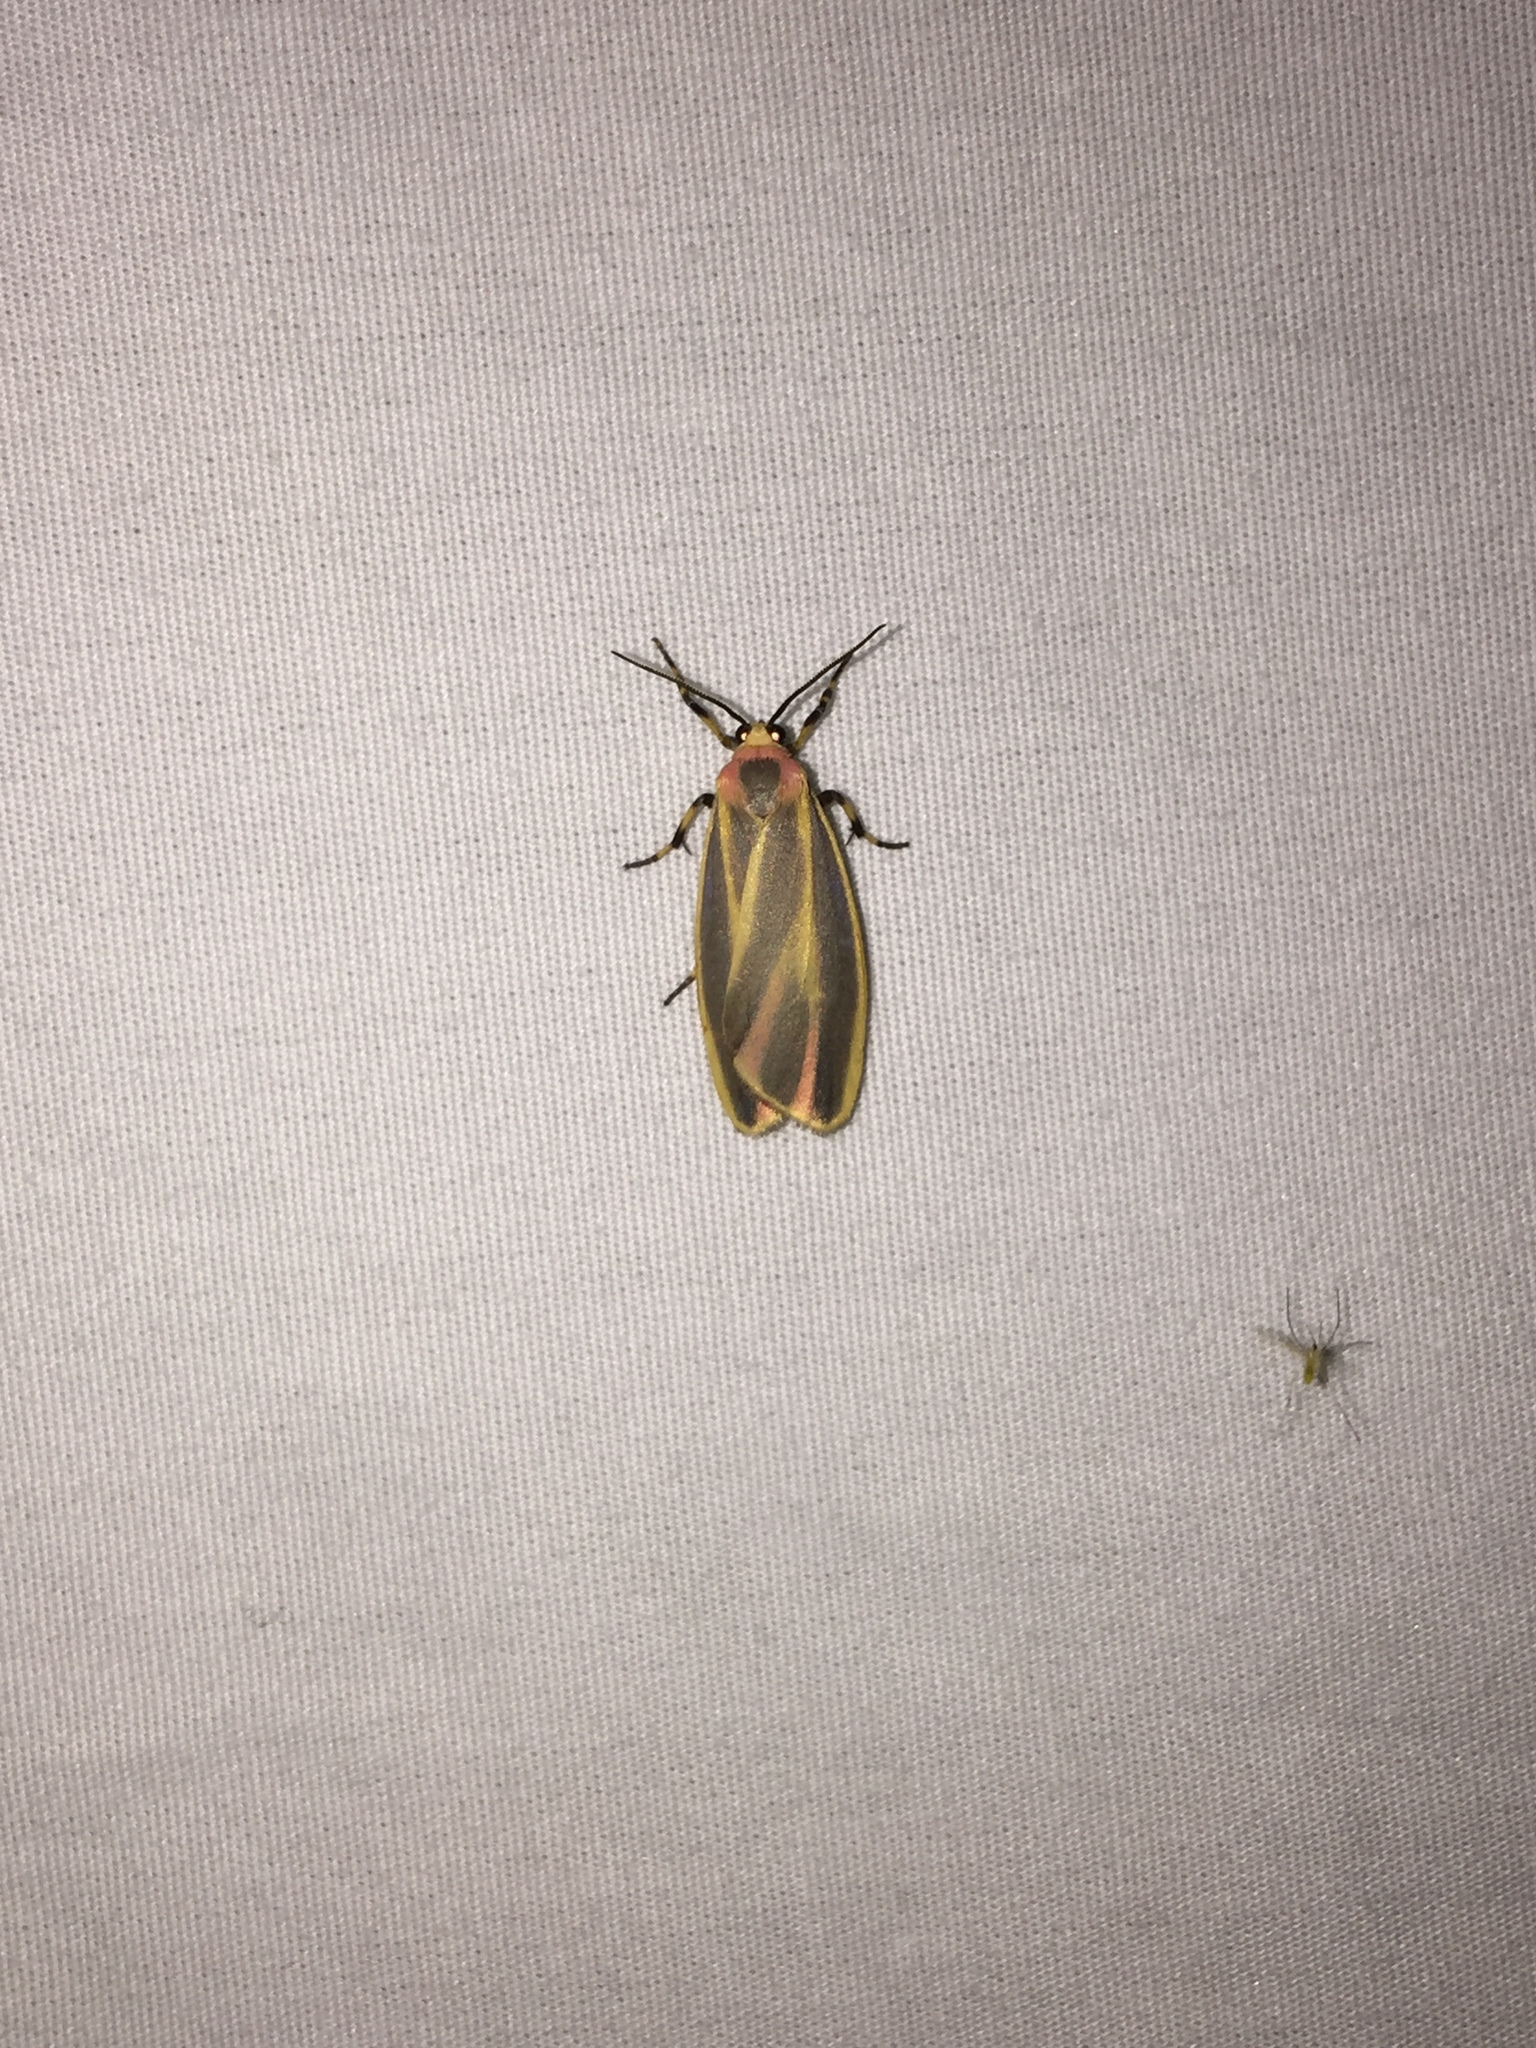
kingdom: Animalia
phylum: Arthropoda
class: Insecta
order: Lepidoptera
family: Erebidae
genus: Hypoprepia
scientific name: Hypoprepia fucosa
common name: Painted lichen moth
